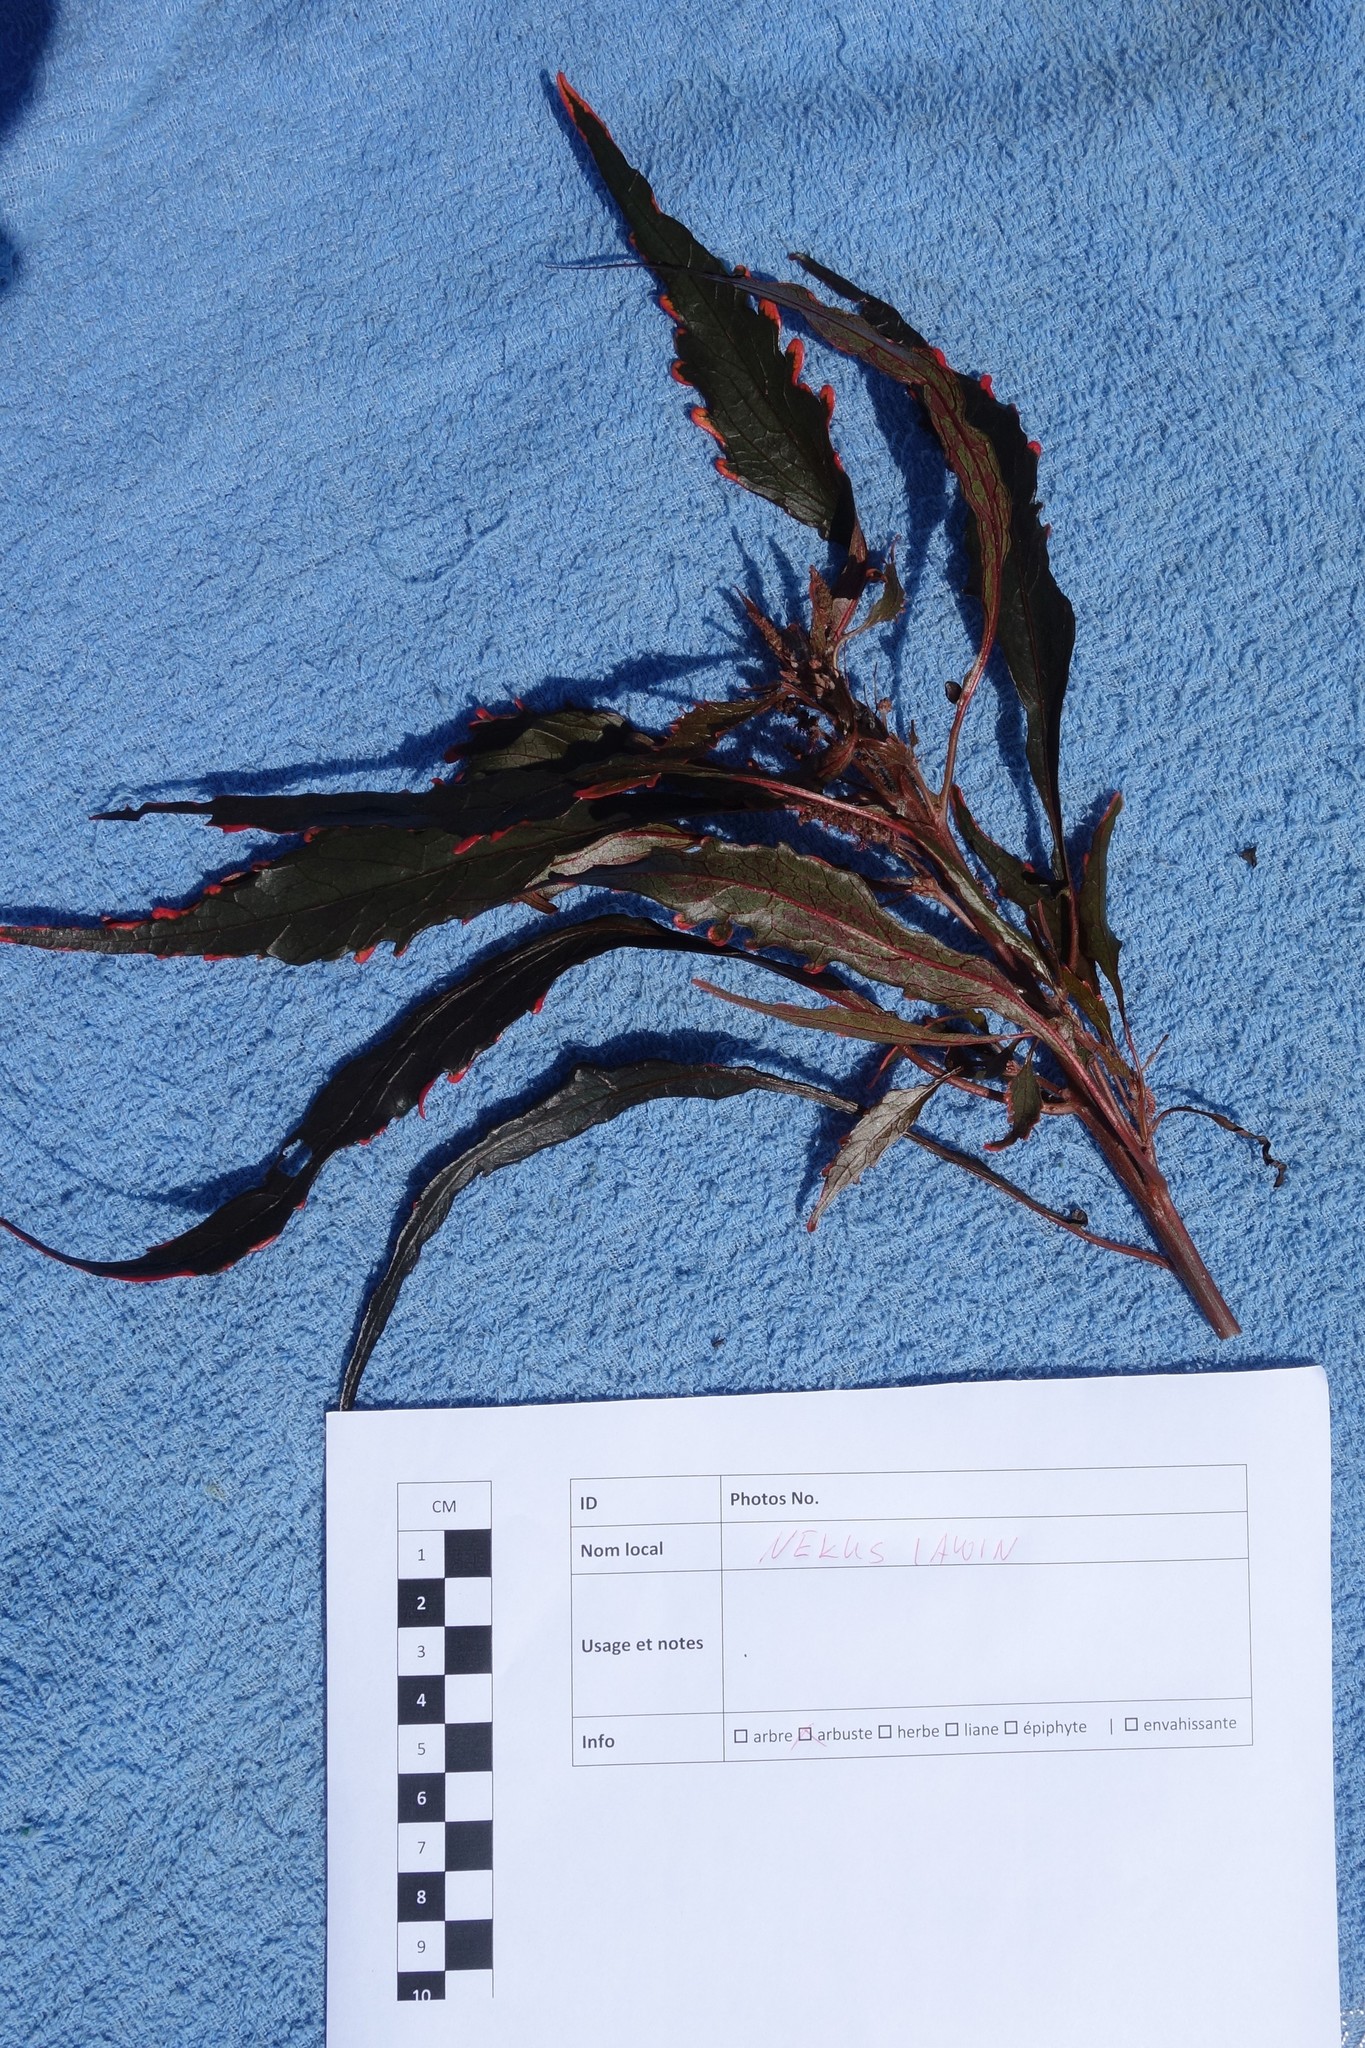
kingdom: Plantae
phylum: Tracheophyta
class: Magnoliopsida
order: Malpighiales
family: Euphorbiaceae
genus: Codiaeum
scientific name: Codiaeum variegatum
